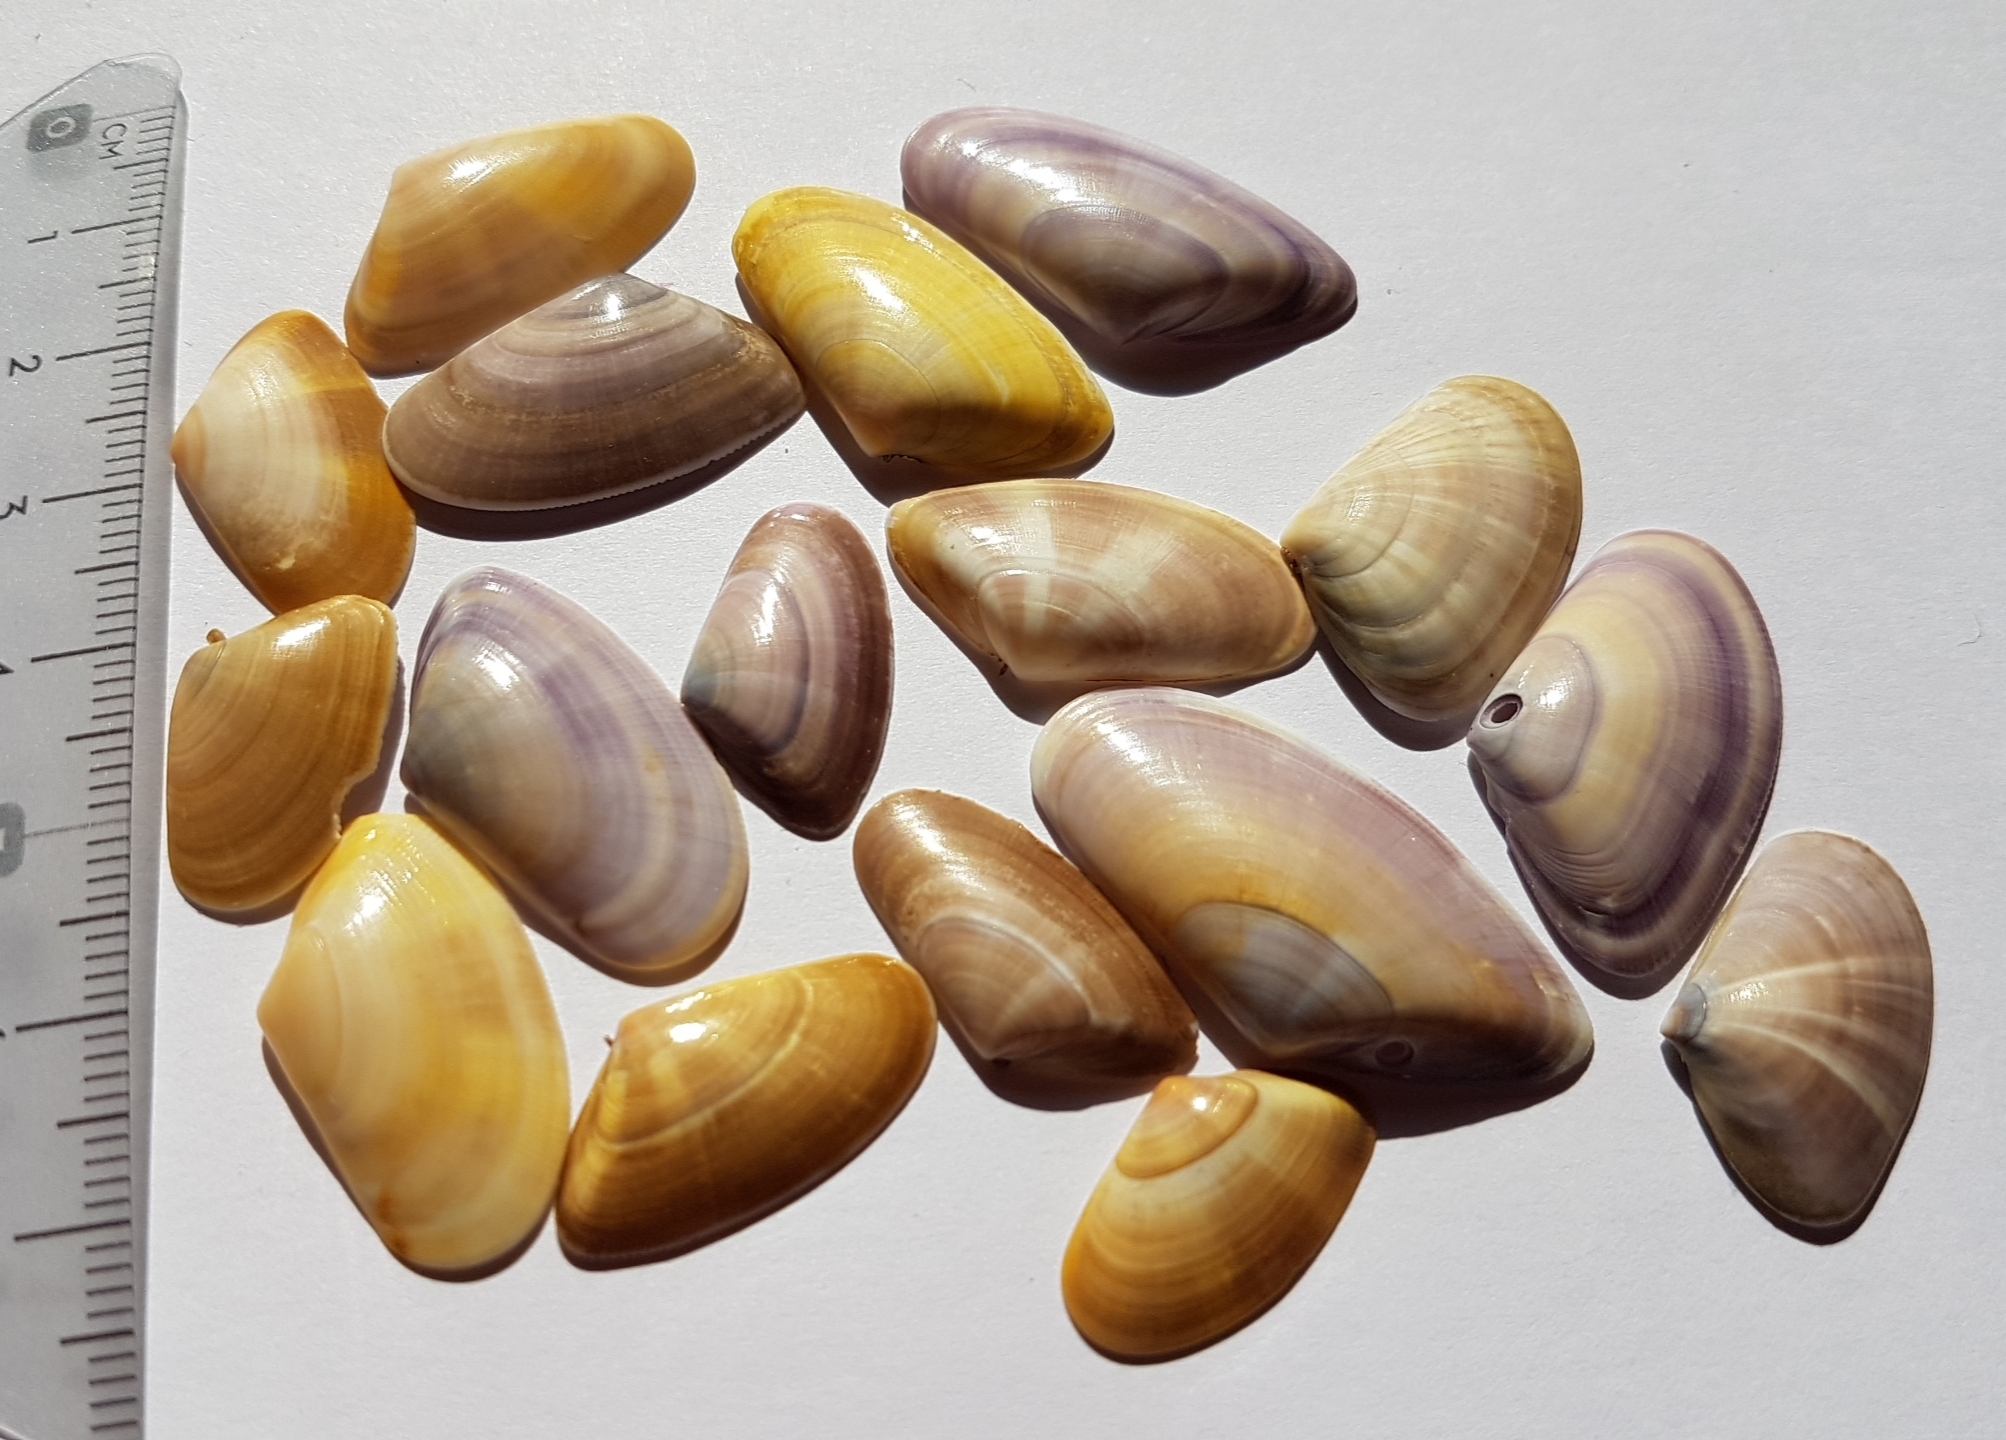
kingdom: Animalia
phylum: Mollusca
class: Bivalvia
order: Cardiida
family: Donacidae
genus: Donax
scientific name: Donax trunculus
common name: Truncate donax
